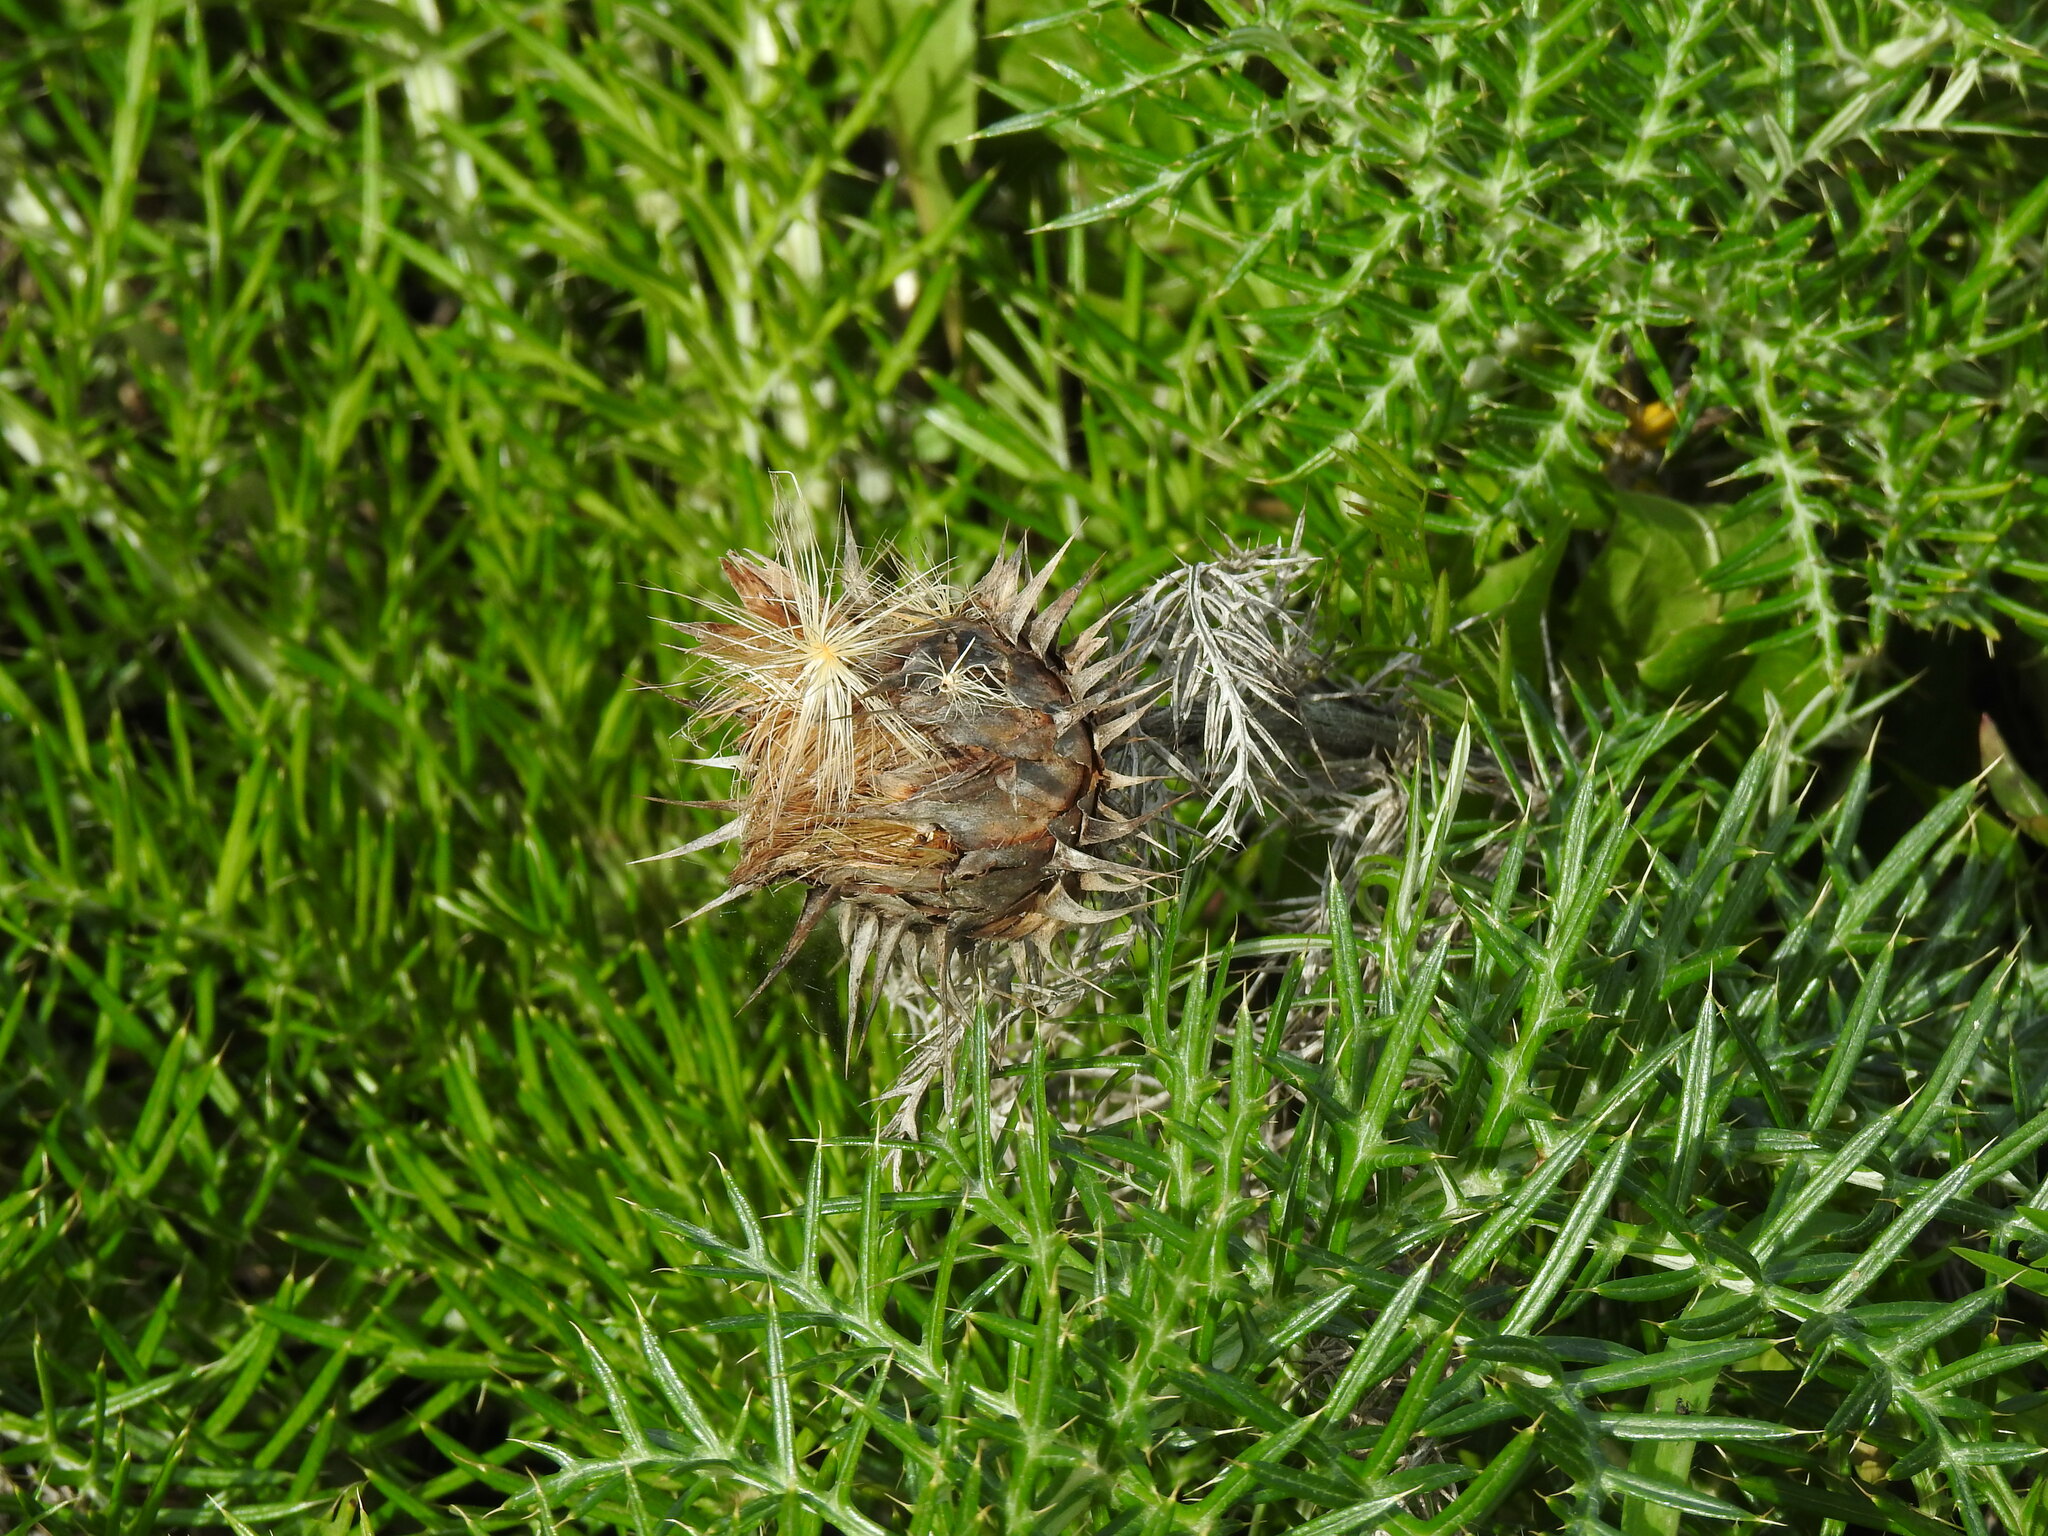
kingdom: Plantae
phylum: Tracheophyta
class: Magnoliopsida
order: Asterales
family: Asteraceae
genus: Cynara
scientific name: Cynara humilis
